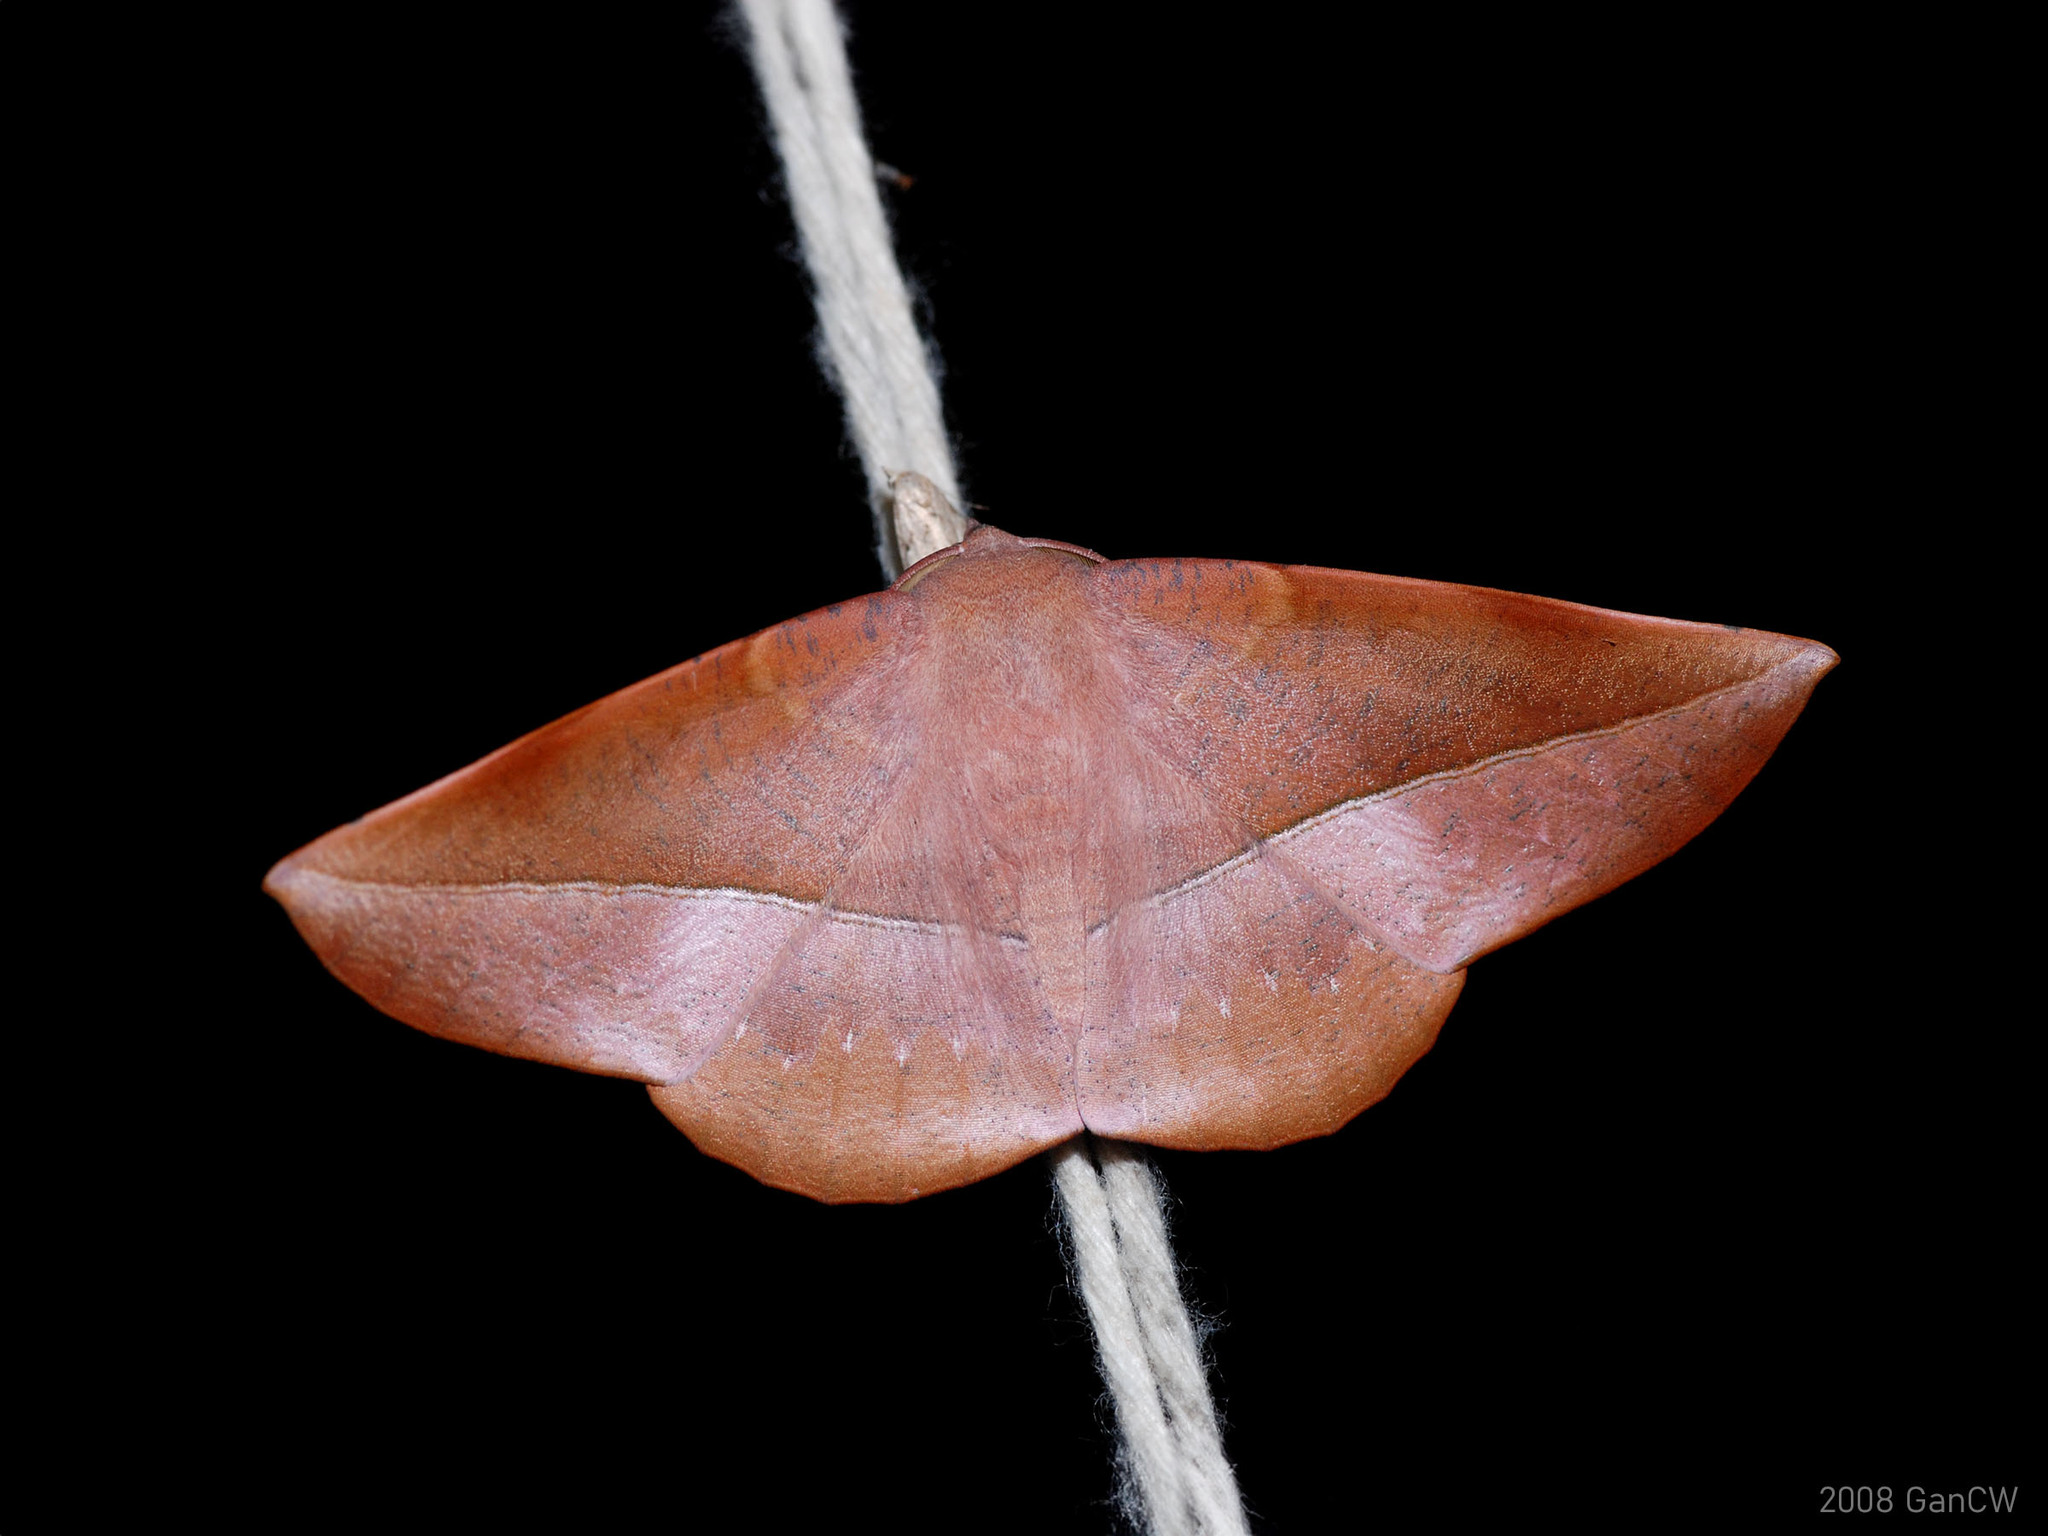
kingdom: Animalia
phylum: Arthropoda
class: Insecta
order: Lepidoptera
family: Geometridae
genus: Sarcinodes
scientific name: Sarcinodes sumatraria
